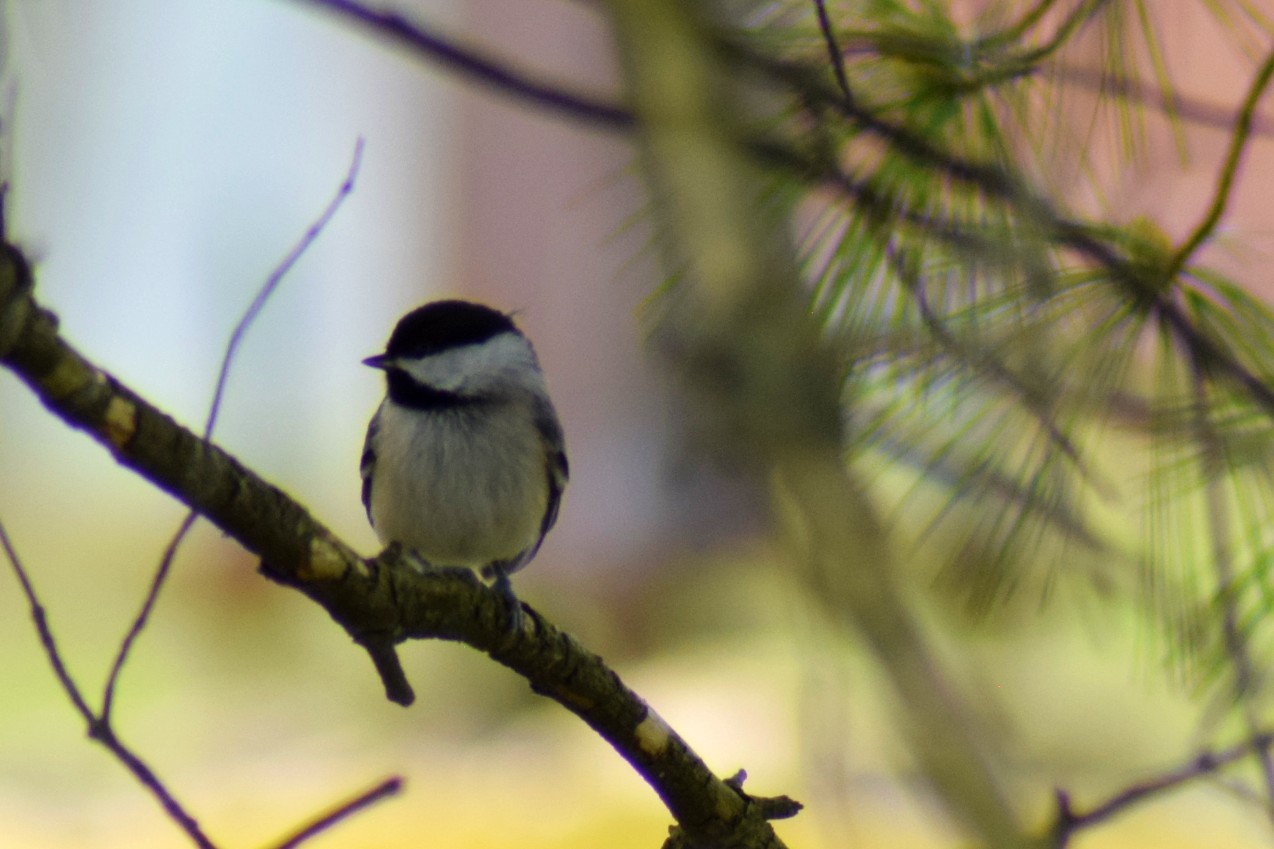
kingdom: Animalia
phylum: Chordata
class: Aves
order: Passeriformes
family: Paridae
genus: Poecile
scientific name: Poecile carolinensis
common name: Carolina chickadee
